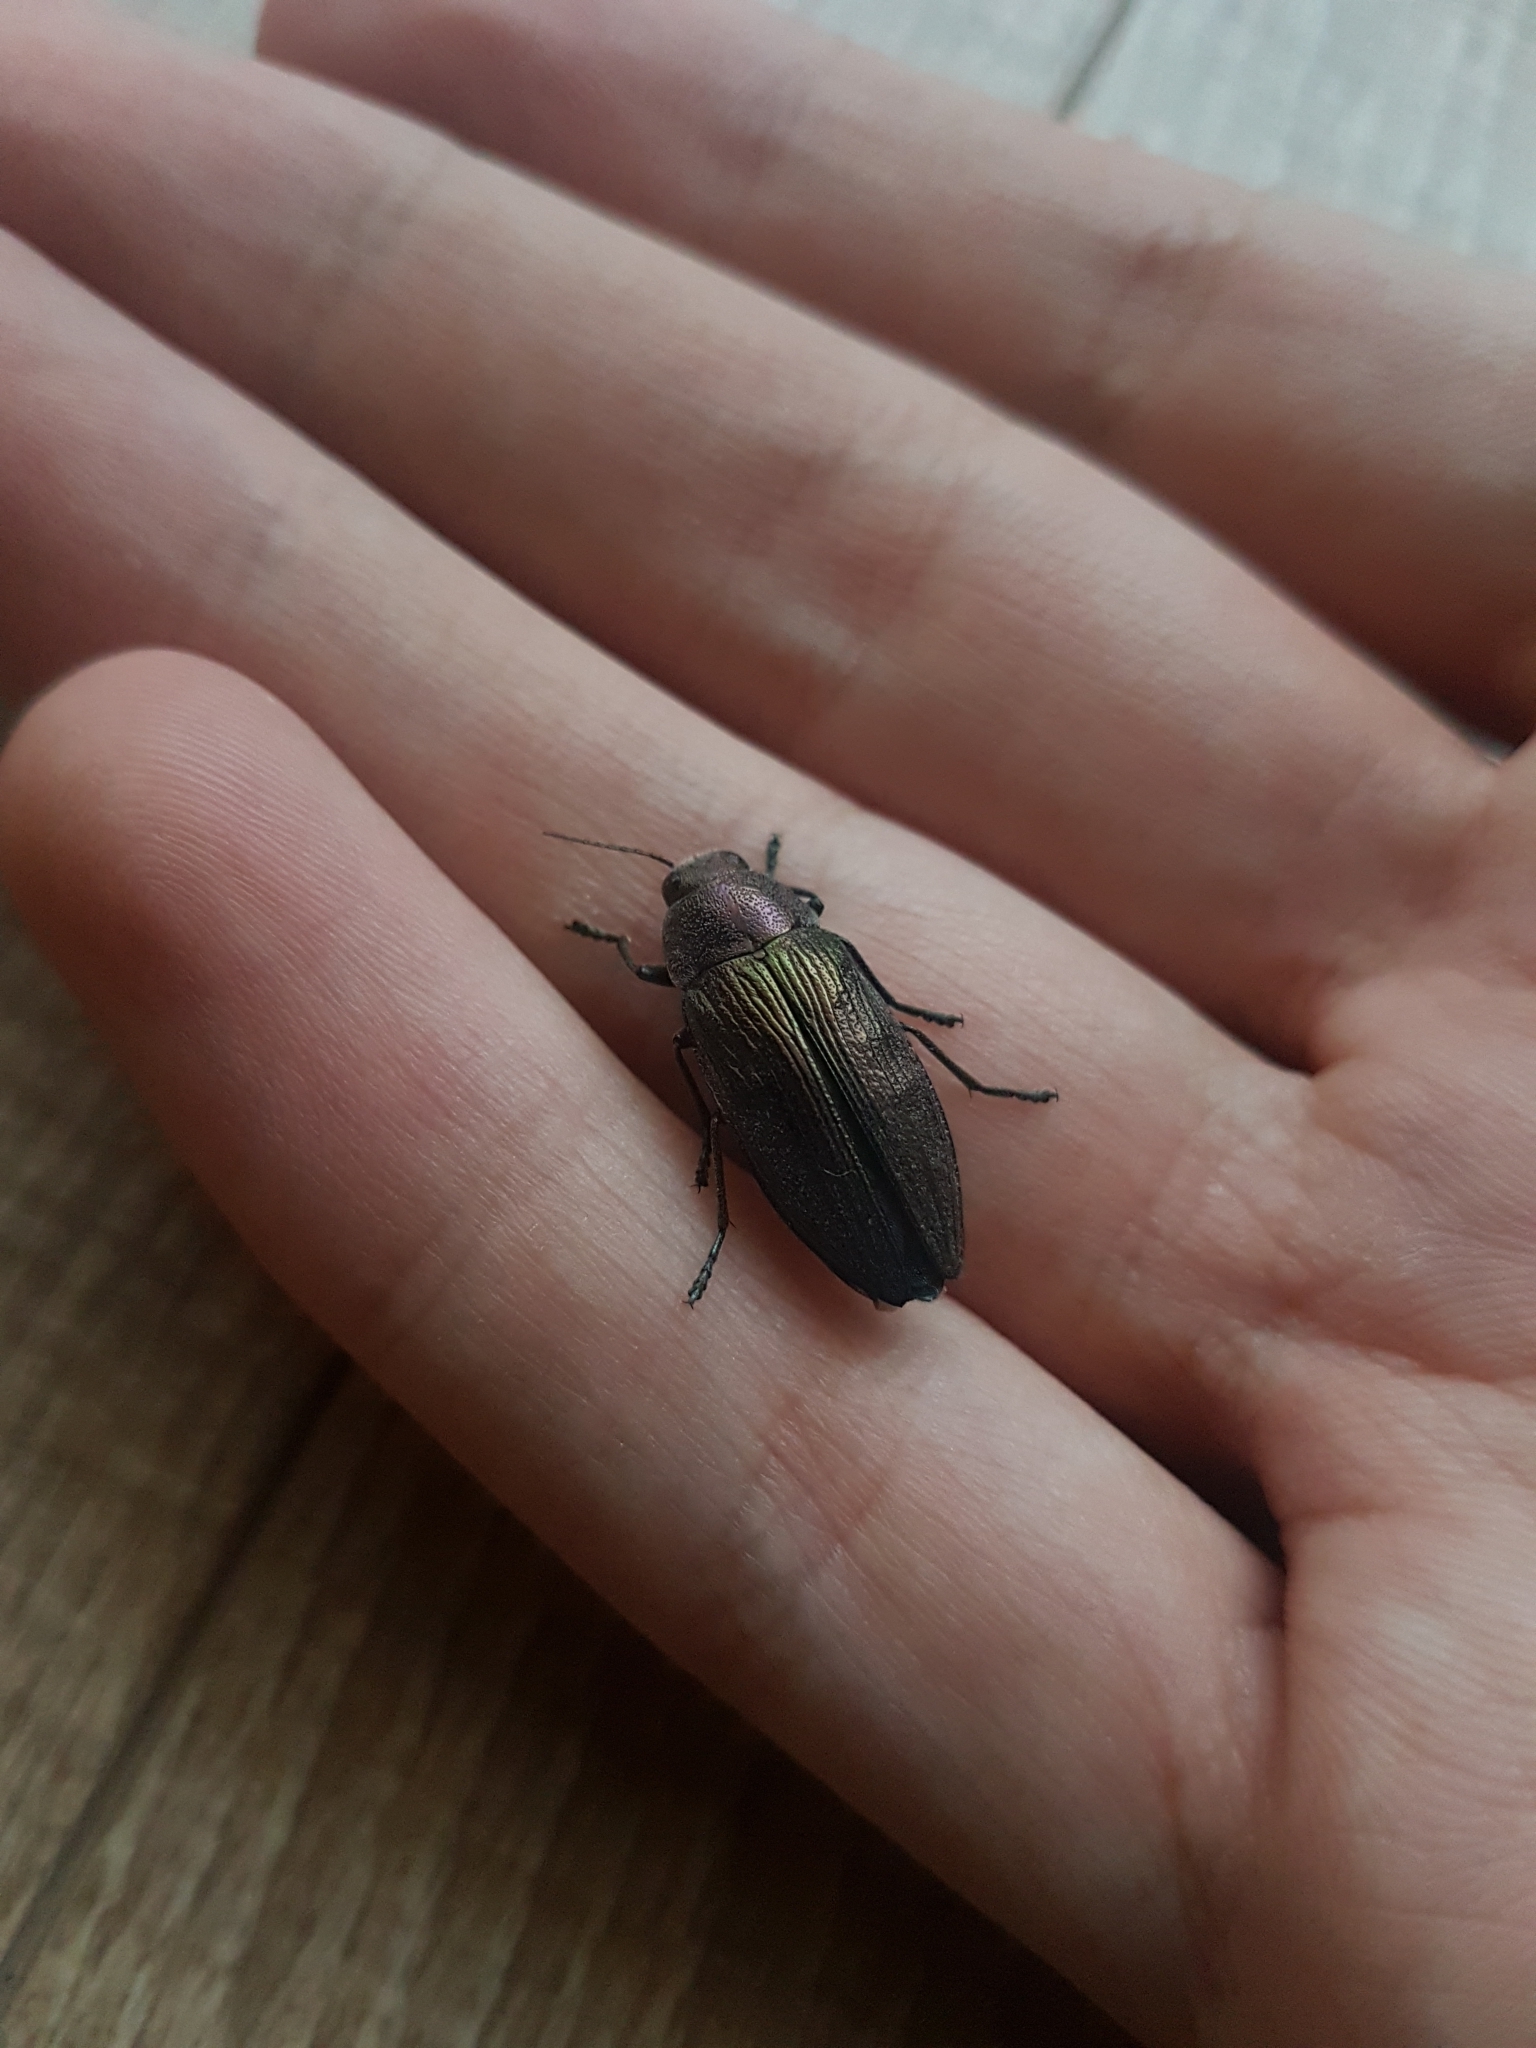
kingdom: Animalia
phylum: Arthropoda
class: Insecta
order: Coleoptera
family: Buprestidae
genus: Buprestis
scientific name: Buprestis rustica
